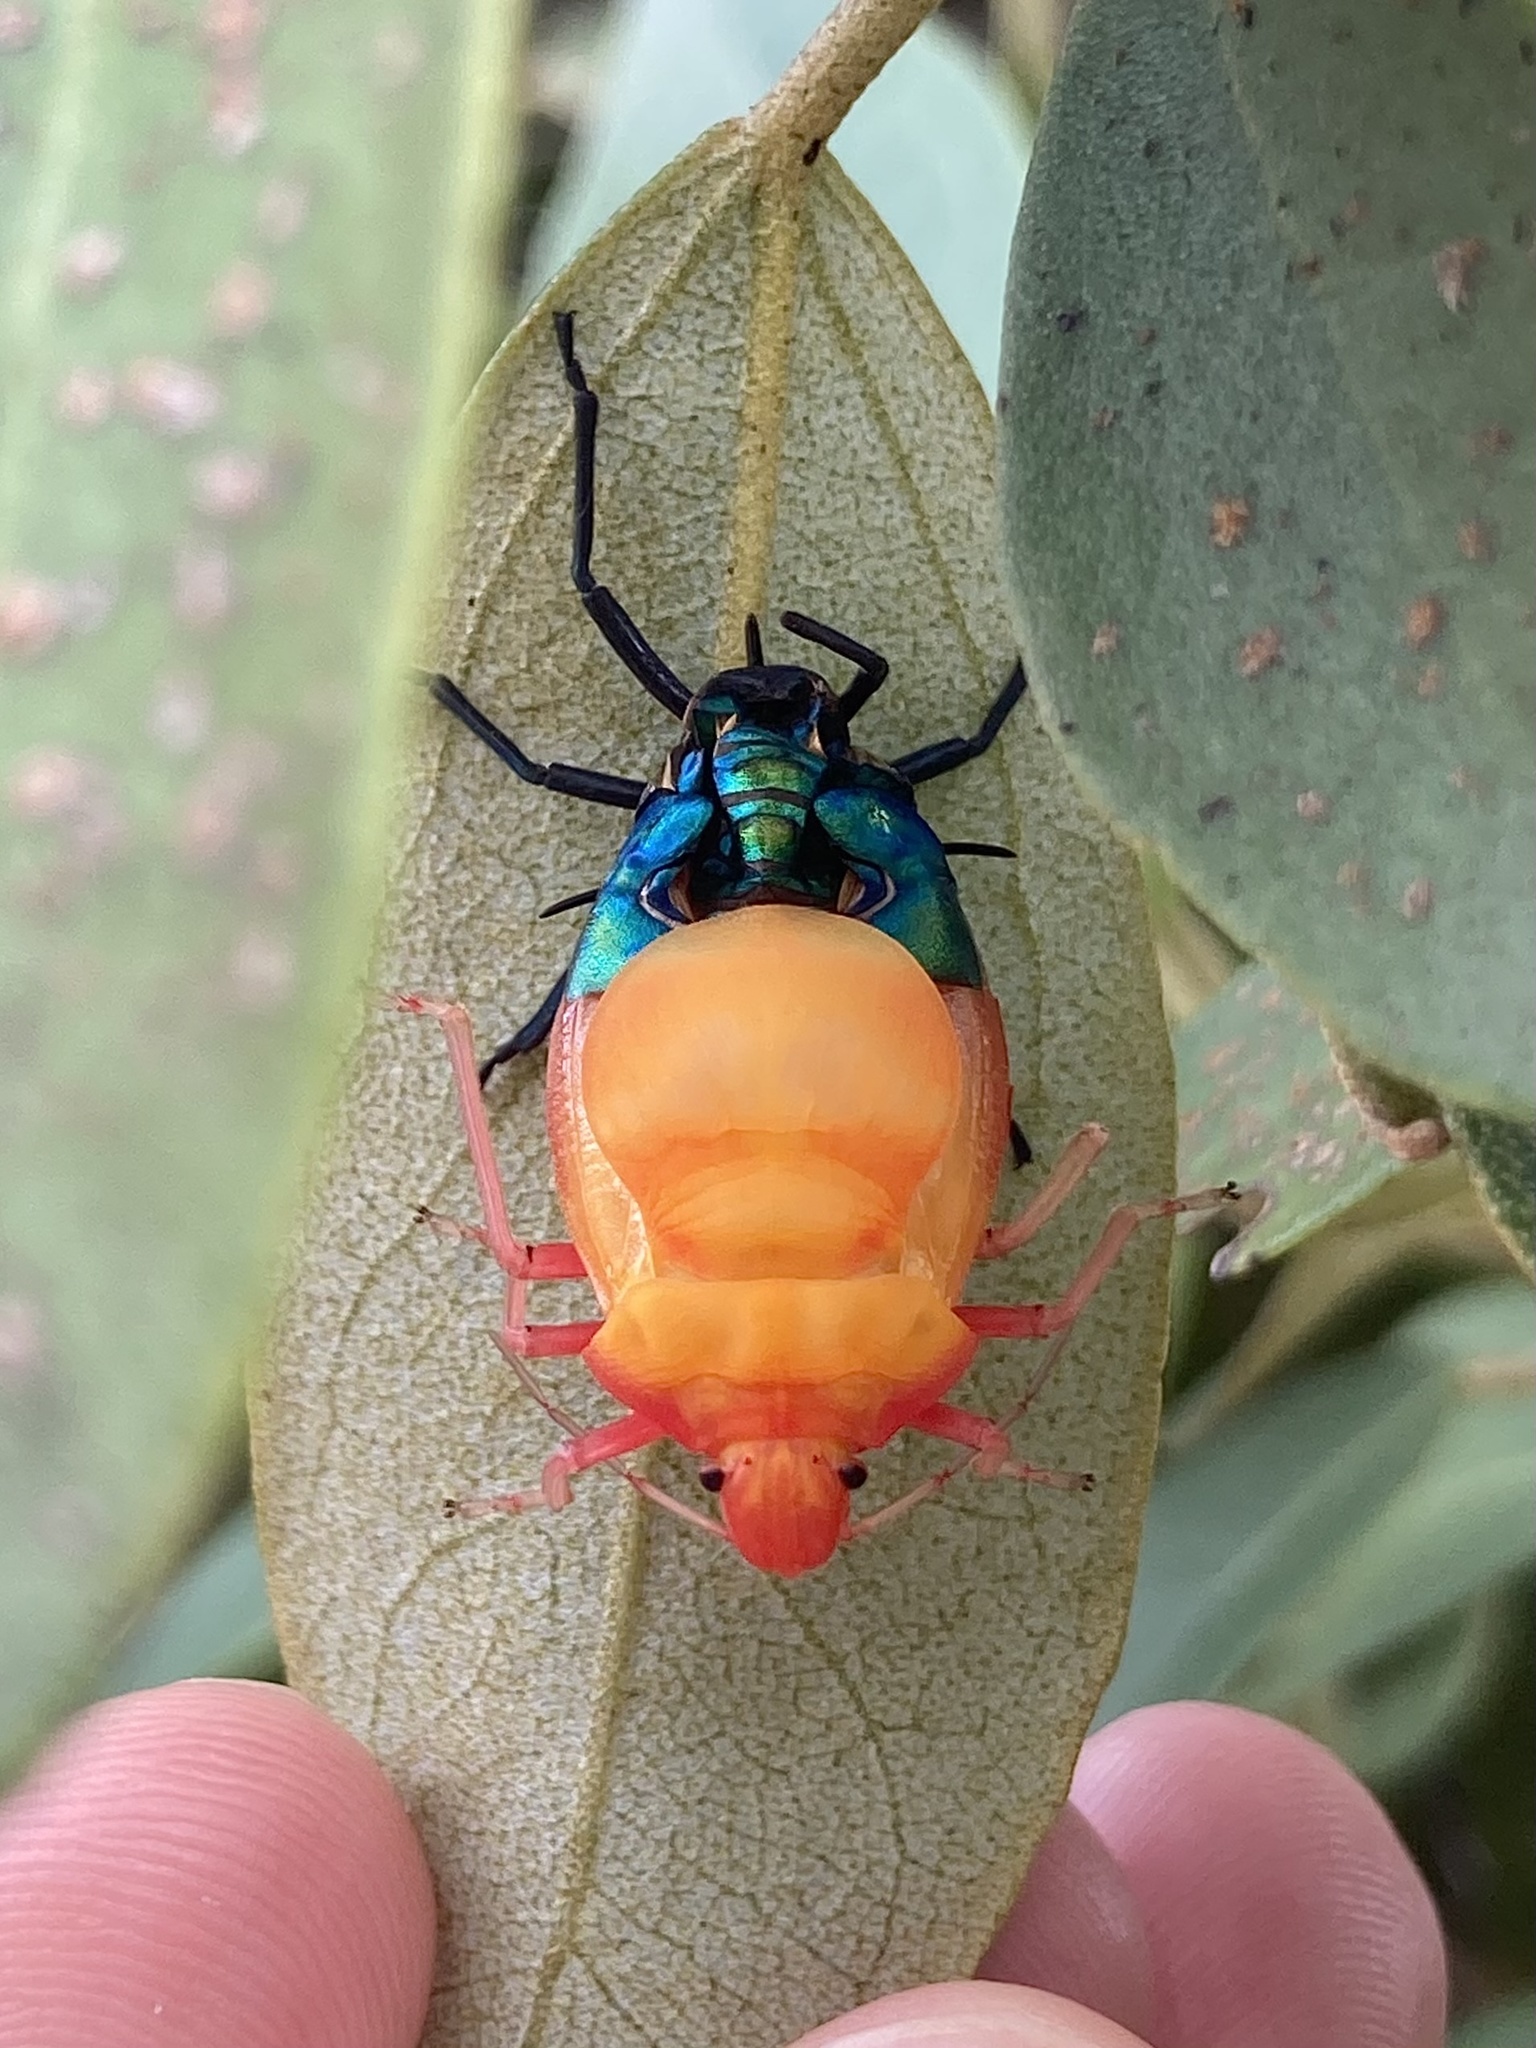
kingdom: Animalia
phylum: Arthropoda
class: Insecta
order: Hemiptera
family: Scutelleridae
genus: Tectocoris
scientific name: Tectocoris diophthalmus
